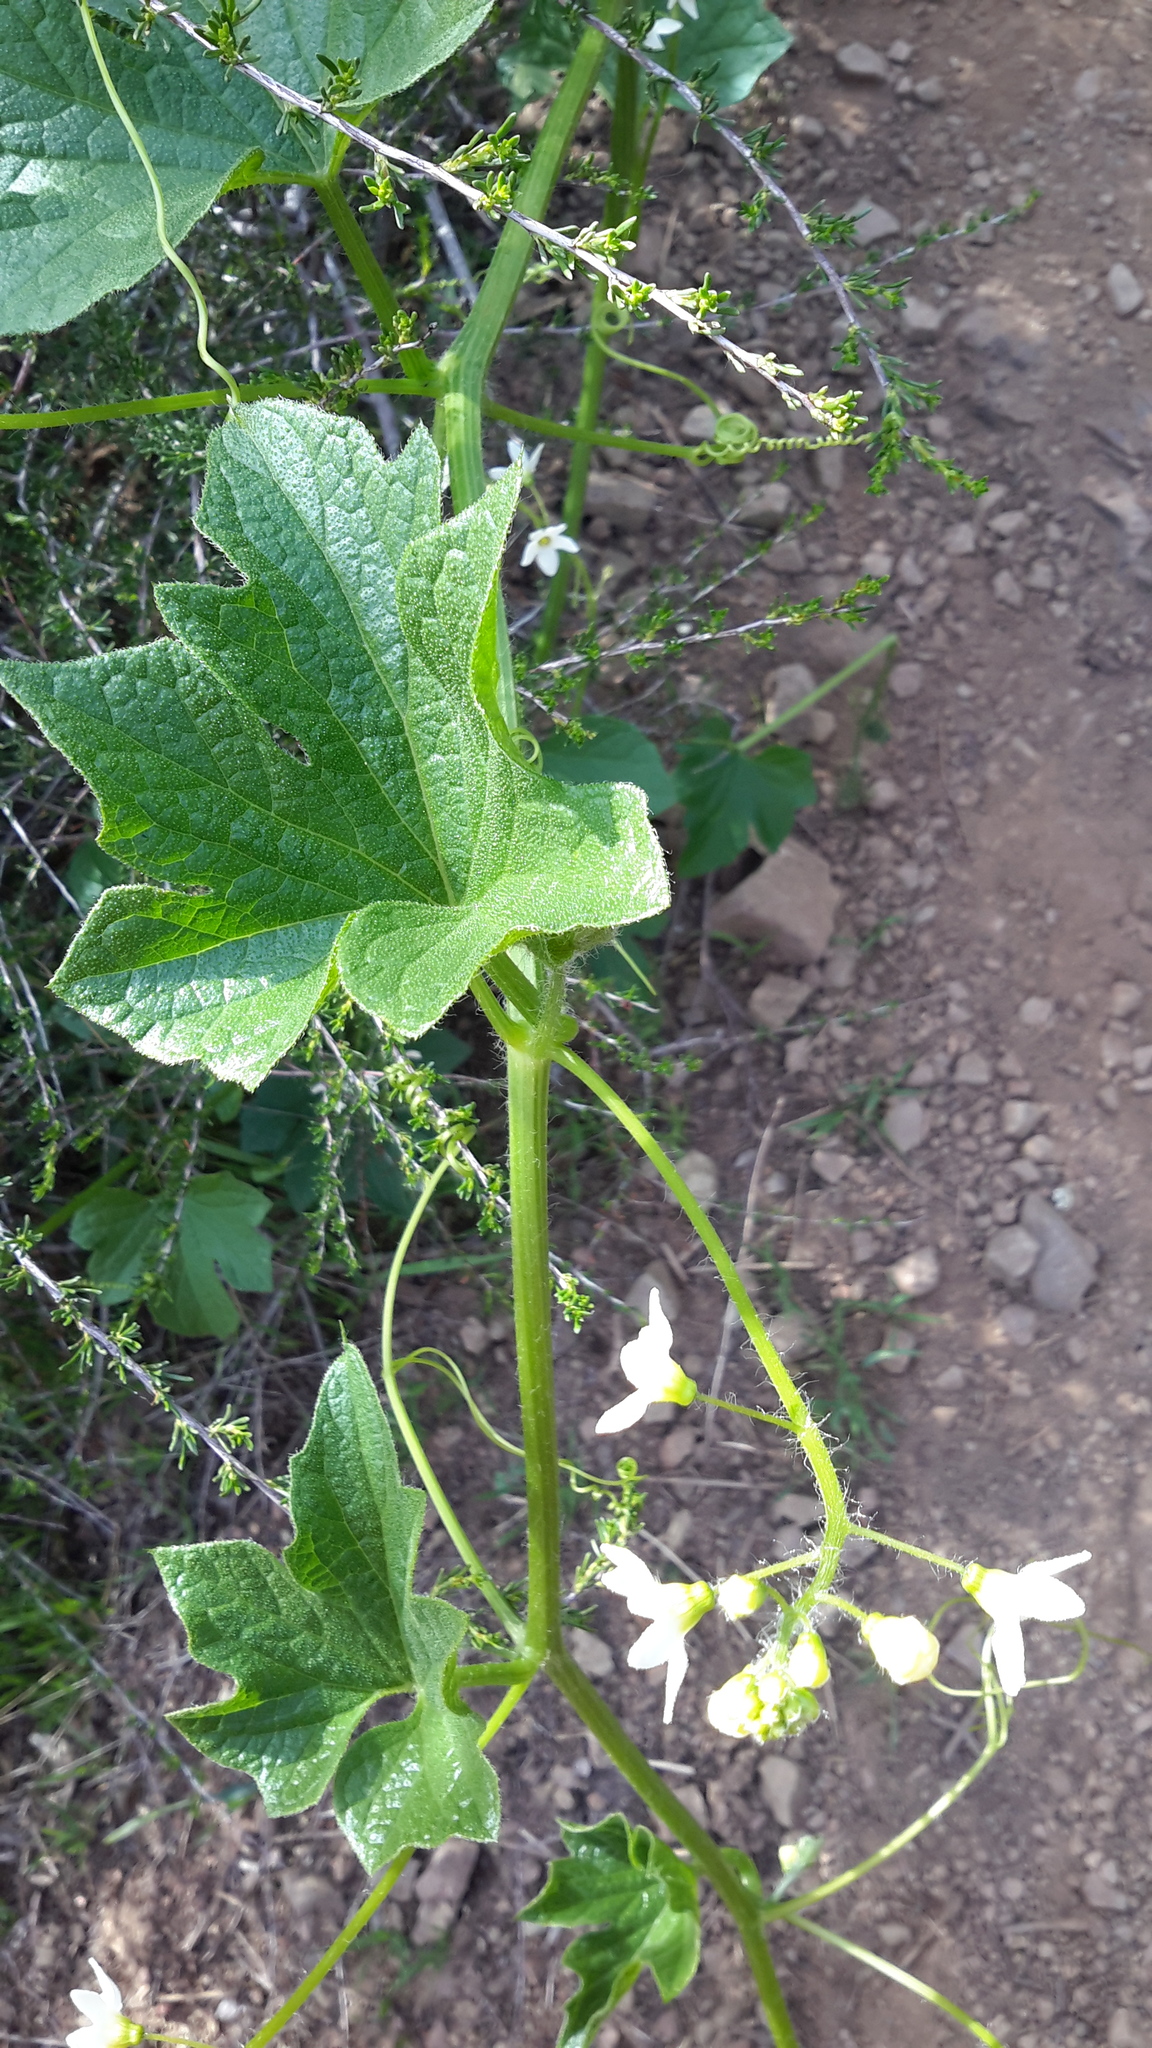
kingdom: Plantae
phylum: Tracheophyta
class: Magnoliopsida
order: Cucurbitales
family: Cucurbitaceae
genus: Marah
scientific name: Marah oregana
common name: Coastal manroot
